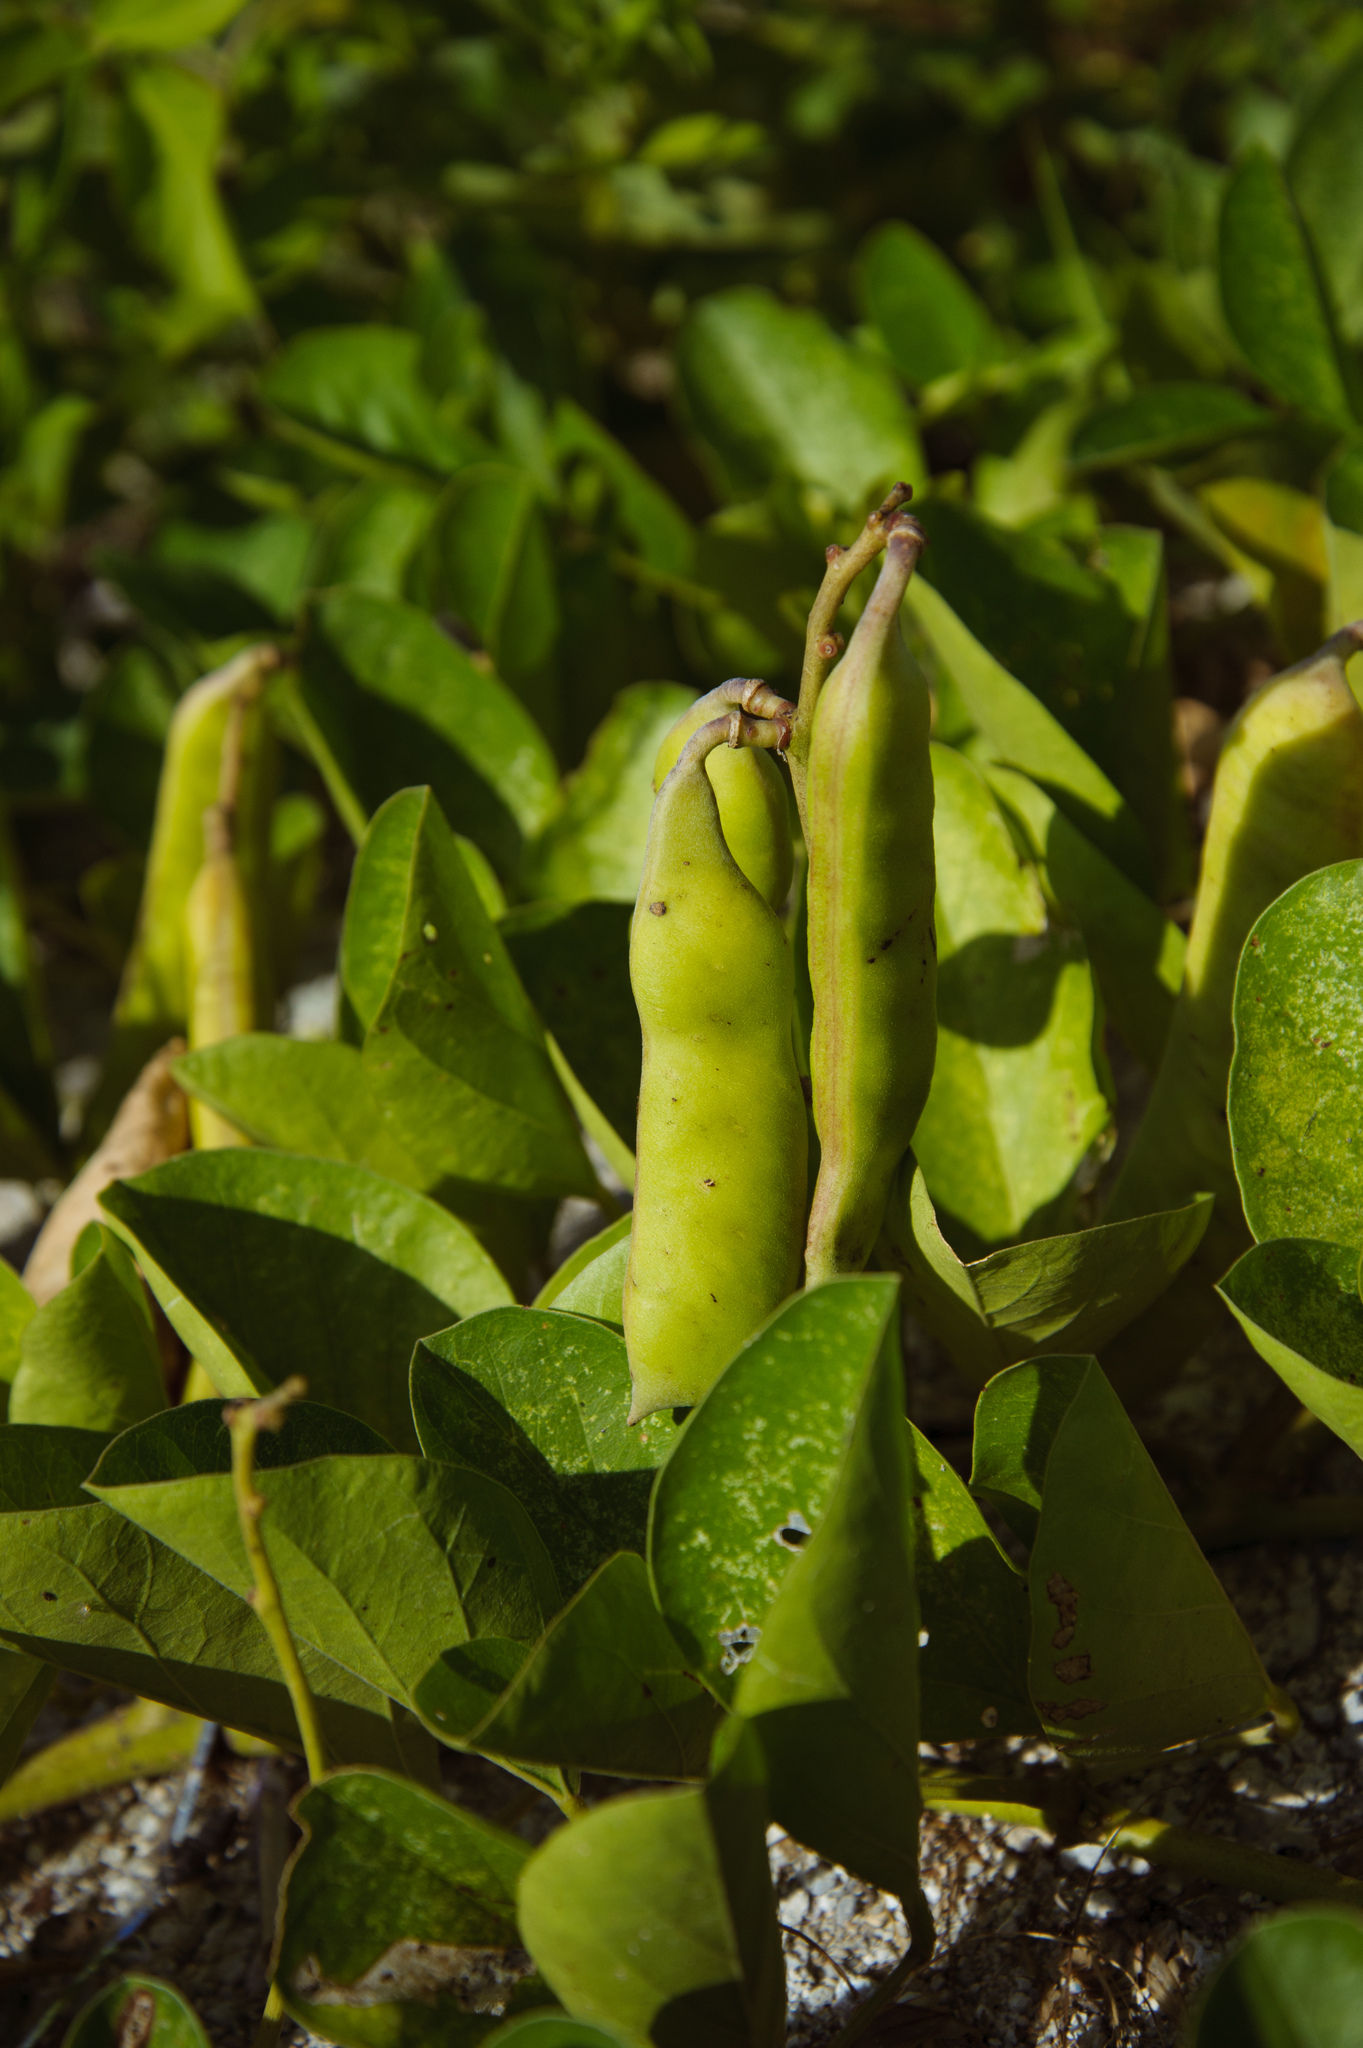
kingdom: Plantae
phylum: Tracheophyta
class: Magnoliopsida
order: Fabales
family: Fabaceae
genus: Canavalia
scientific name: Canavalia rosea
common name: Beach-bean
